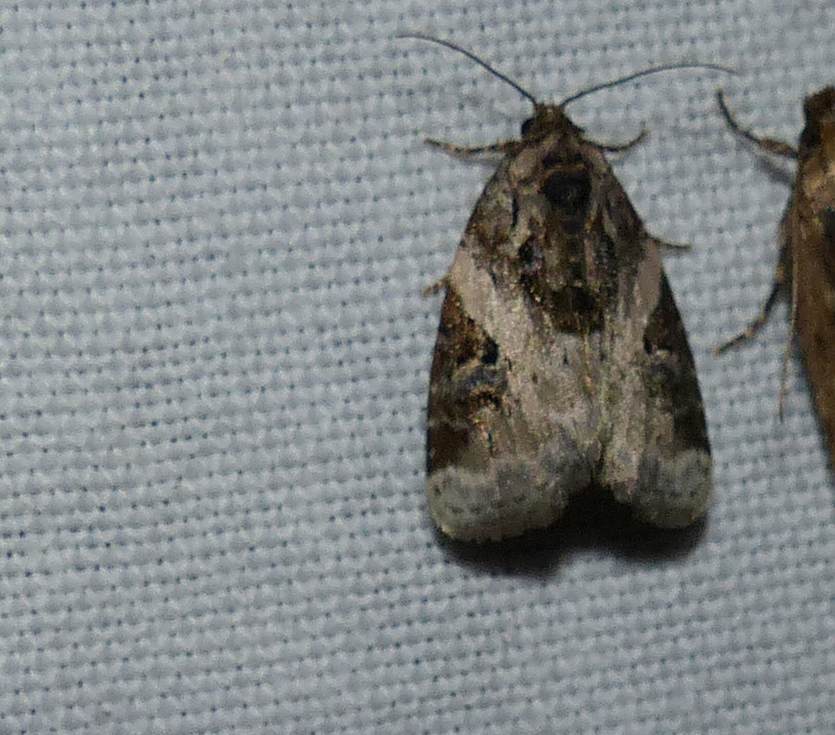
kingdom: Animalia
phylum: Arthropoda
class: Insecta
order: Lepidoptera
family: Noctuidae
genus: Pseudeustrotia
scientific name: Pseudeustrotia carneola
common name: Pink-barred lithacodia moth
